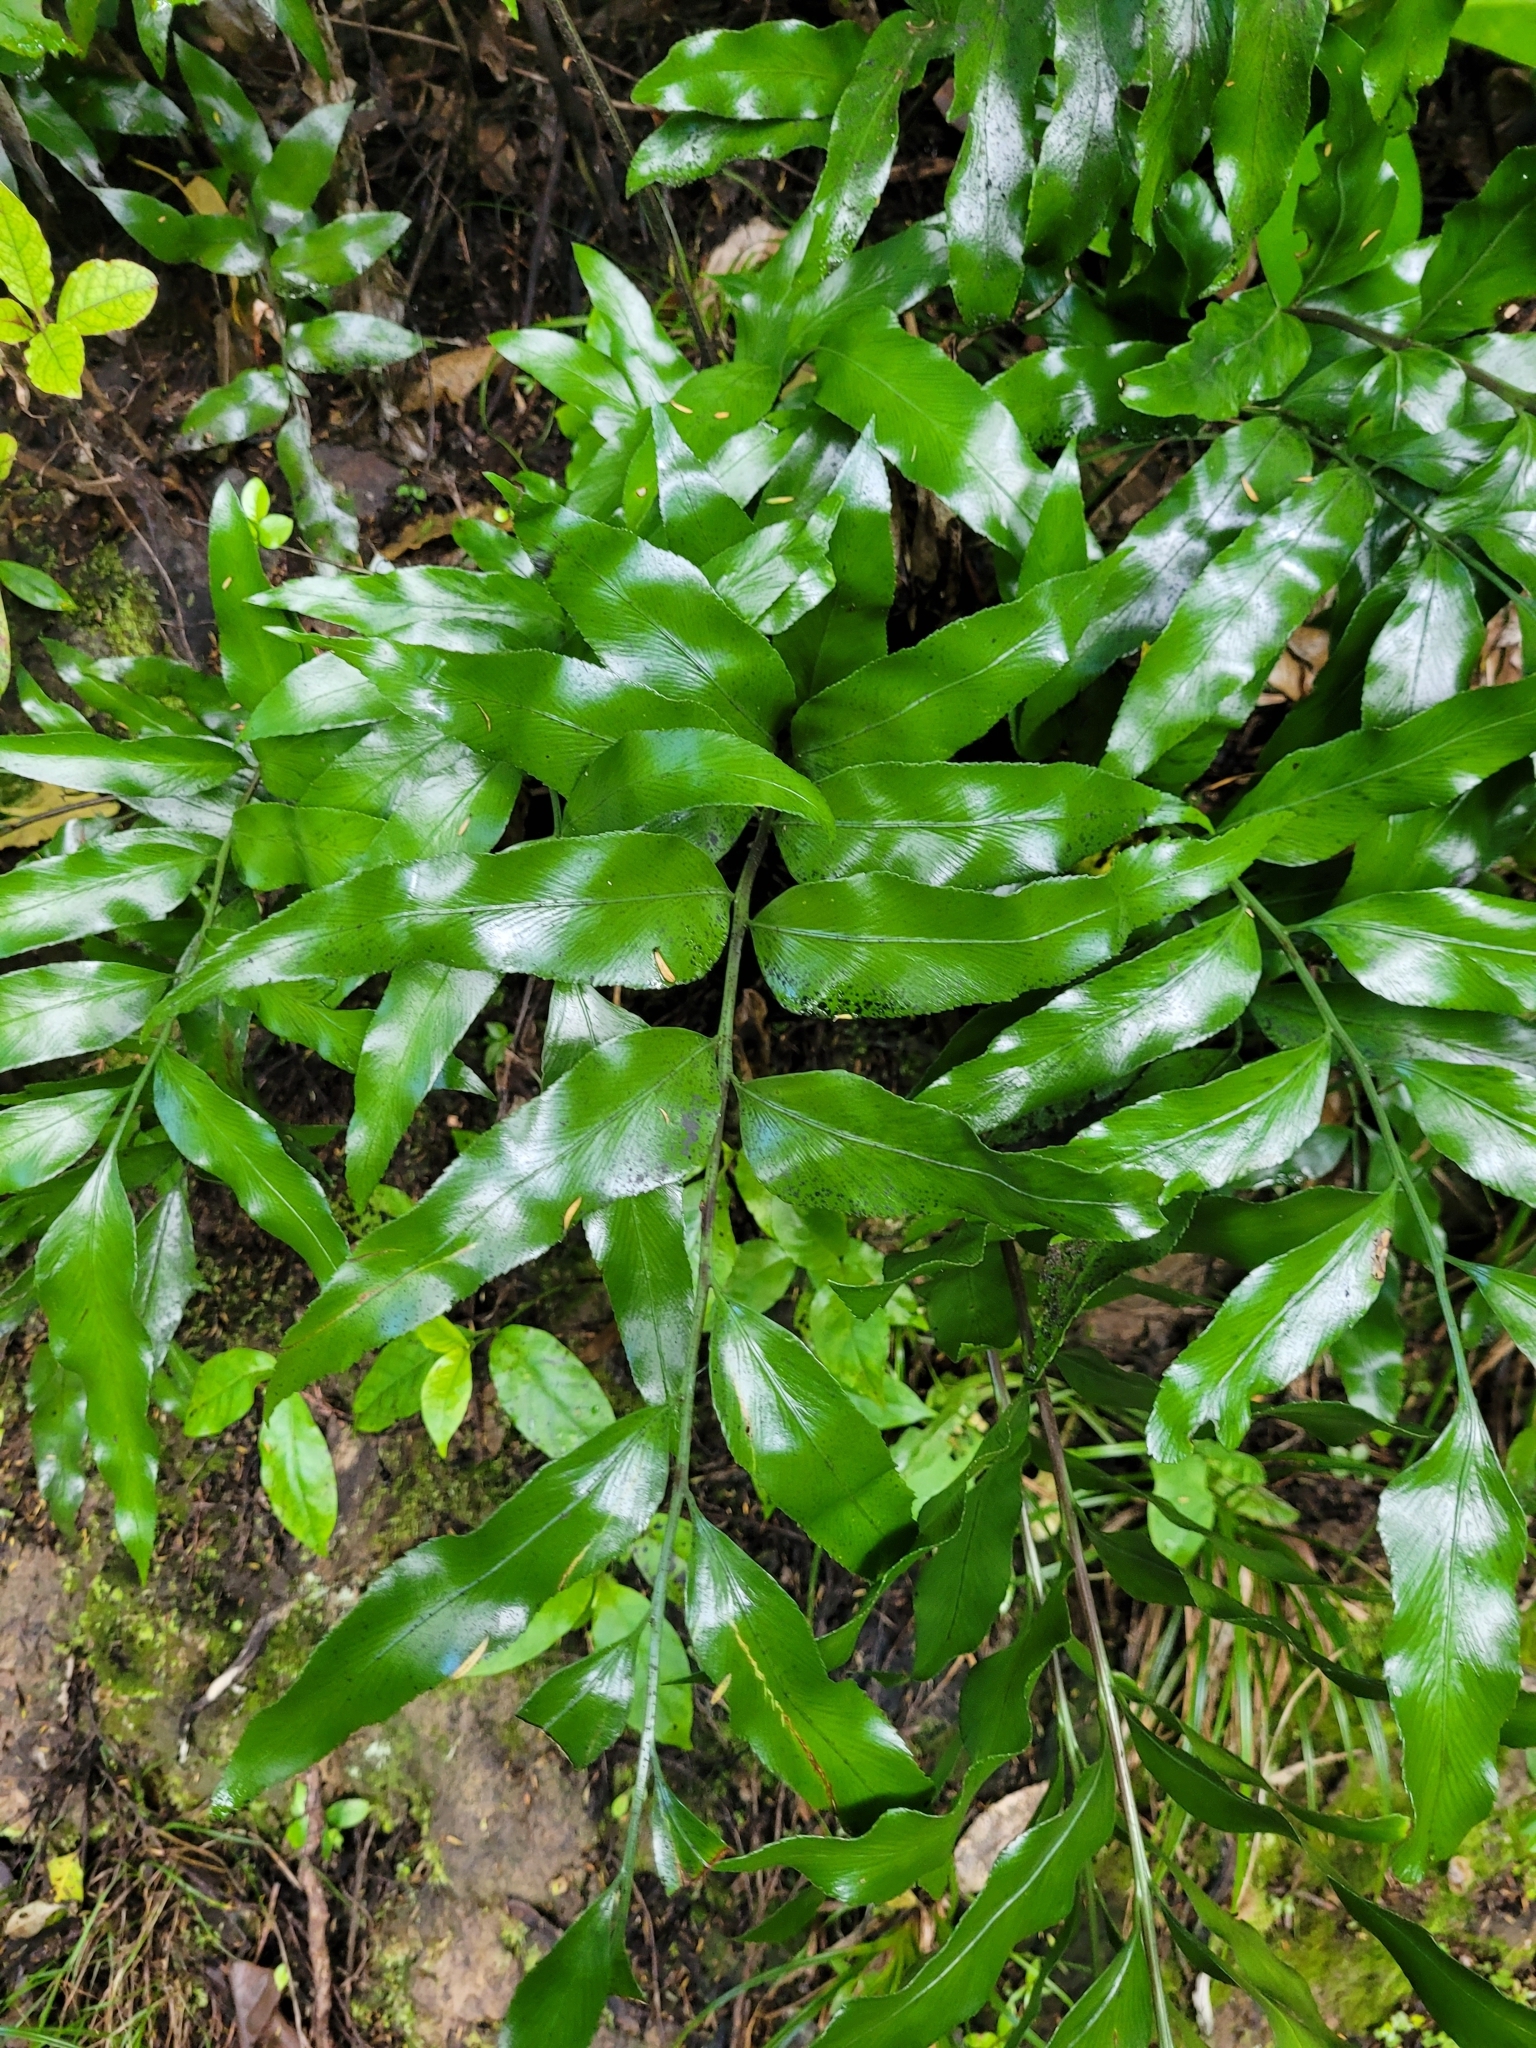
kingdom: Plantae
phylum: Tracheophyta
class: Polypodiopsida
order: Polypodiales
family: Aspleniaceae
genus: Asplenium
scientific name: Asplenium oblongifolium
